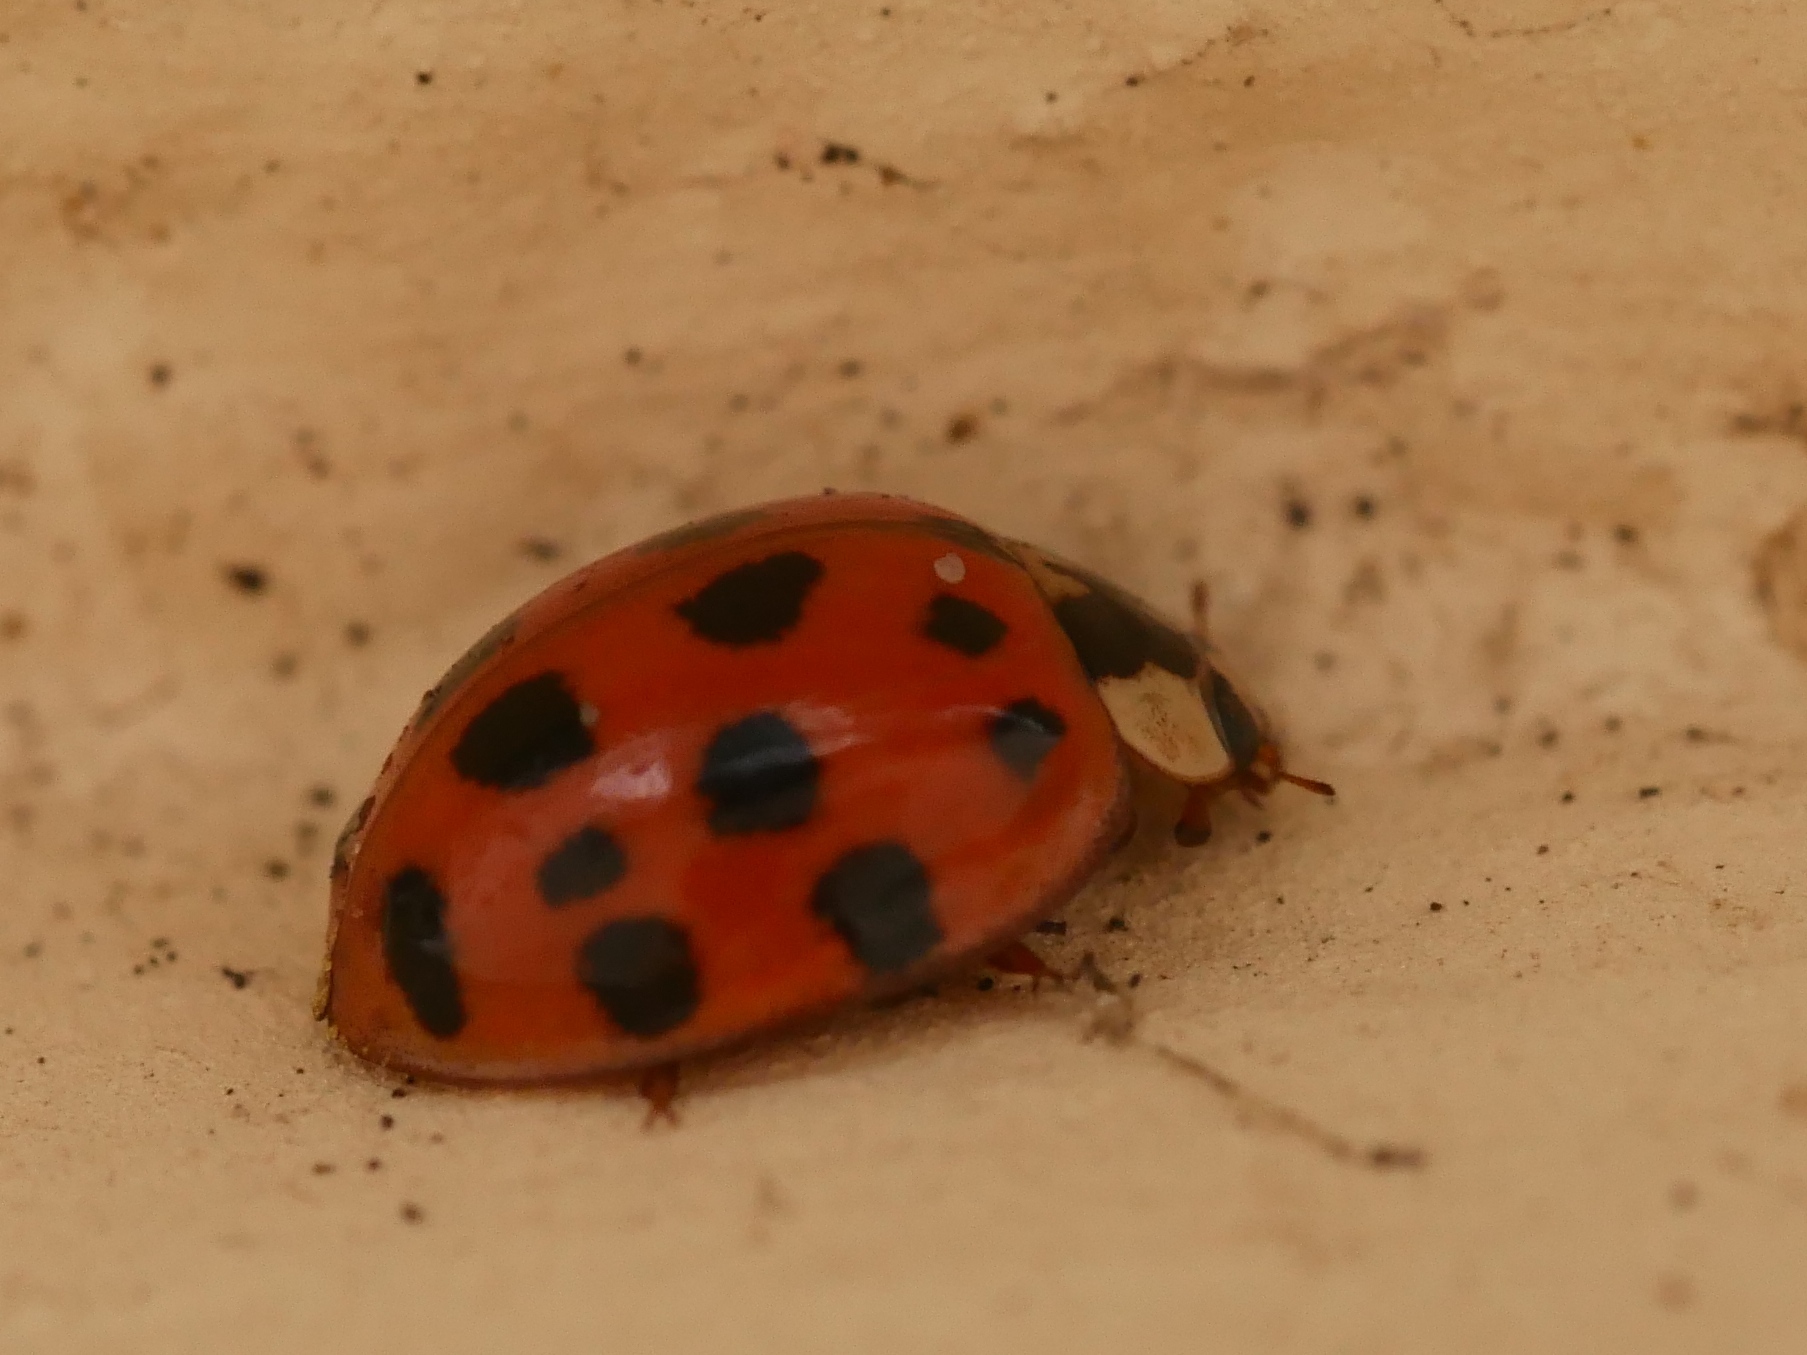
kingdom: Animalia
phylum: Arthropoda
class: Insecta
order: Coleoptera
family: Coccinellidae
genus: Harmonia
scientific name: Harmonia axyridis
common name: Harlequin ladybird
